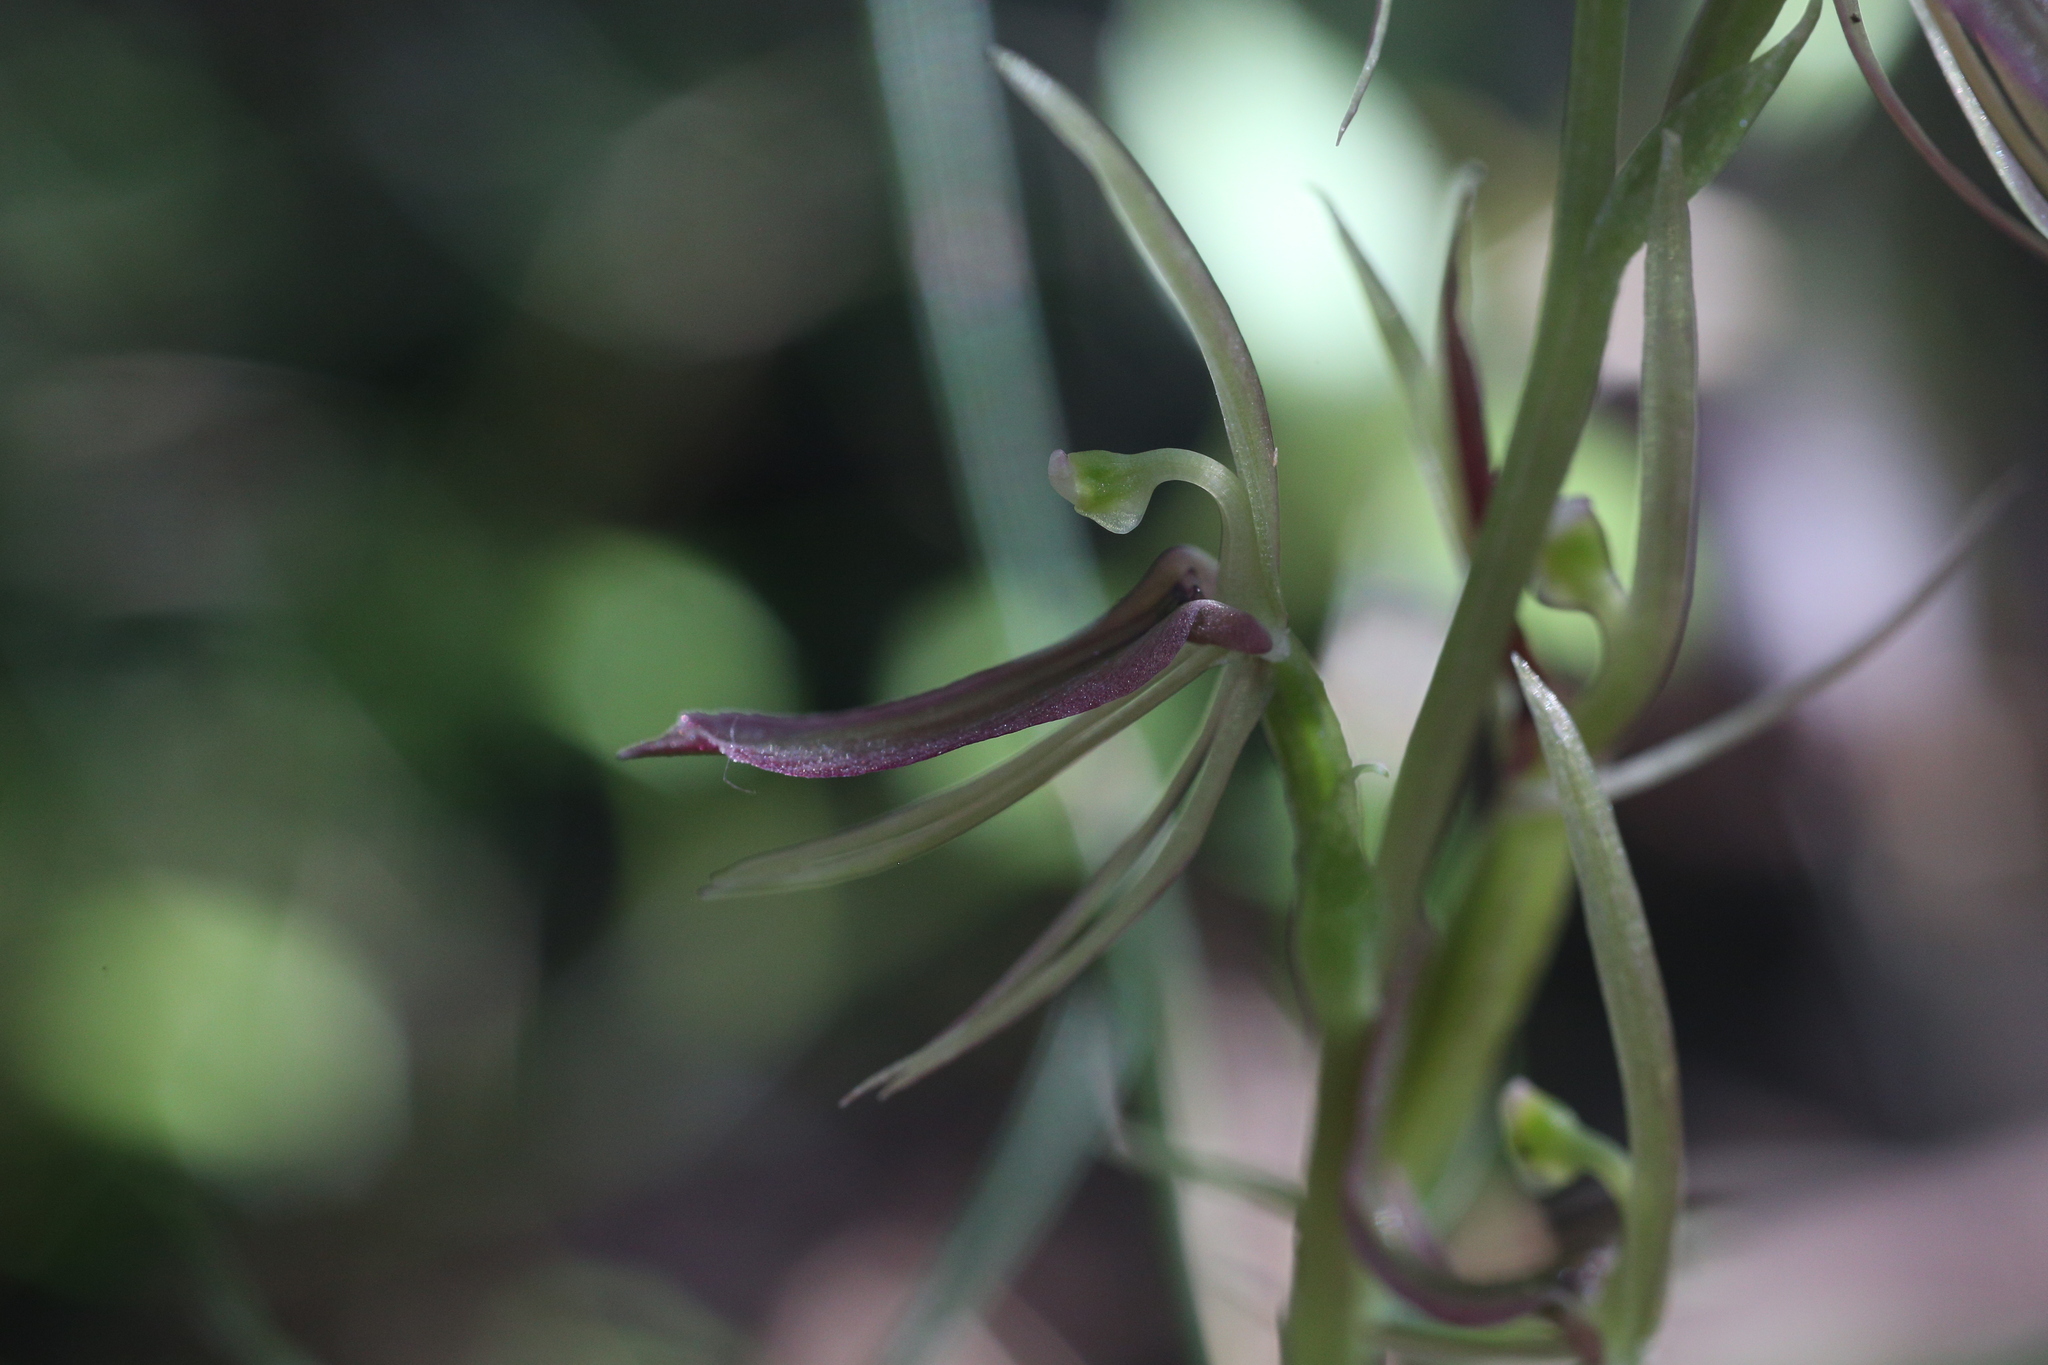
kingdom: Plantae
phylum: Tracheophyta
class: Liliopsida
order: Asparagales
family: Orchidaceae
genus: Cyrtostylis
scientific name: Cyrtostylis huegelii
